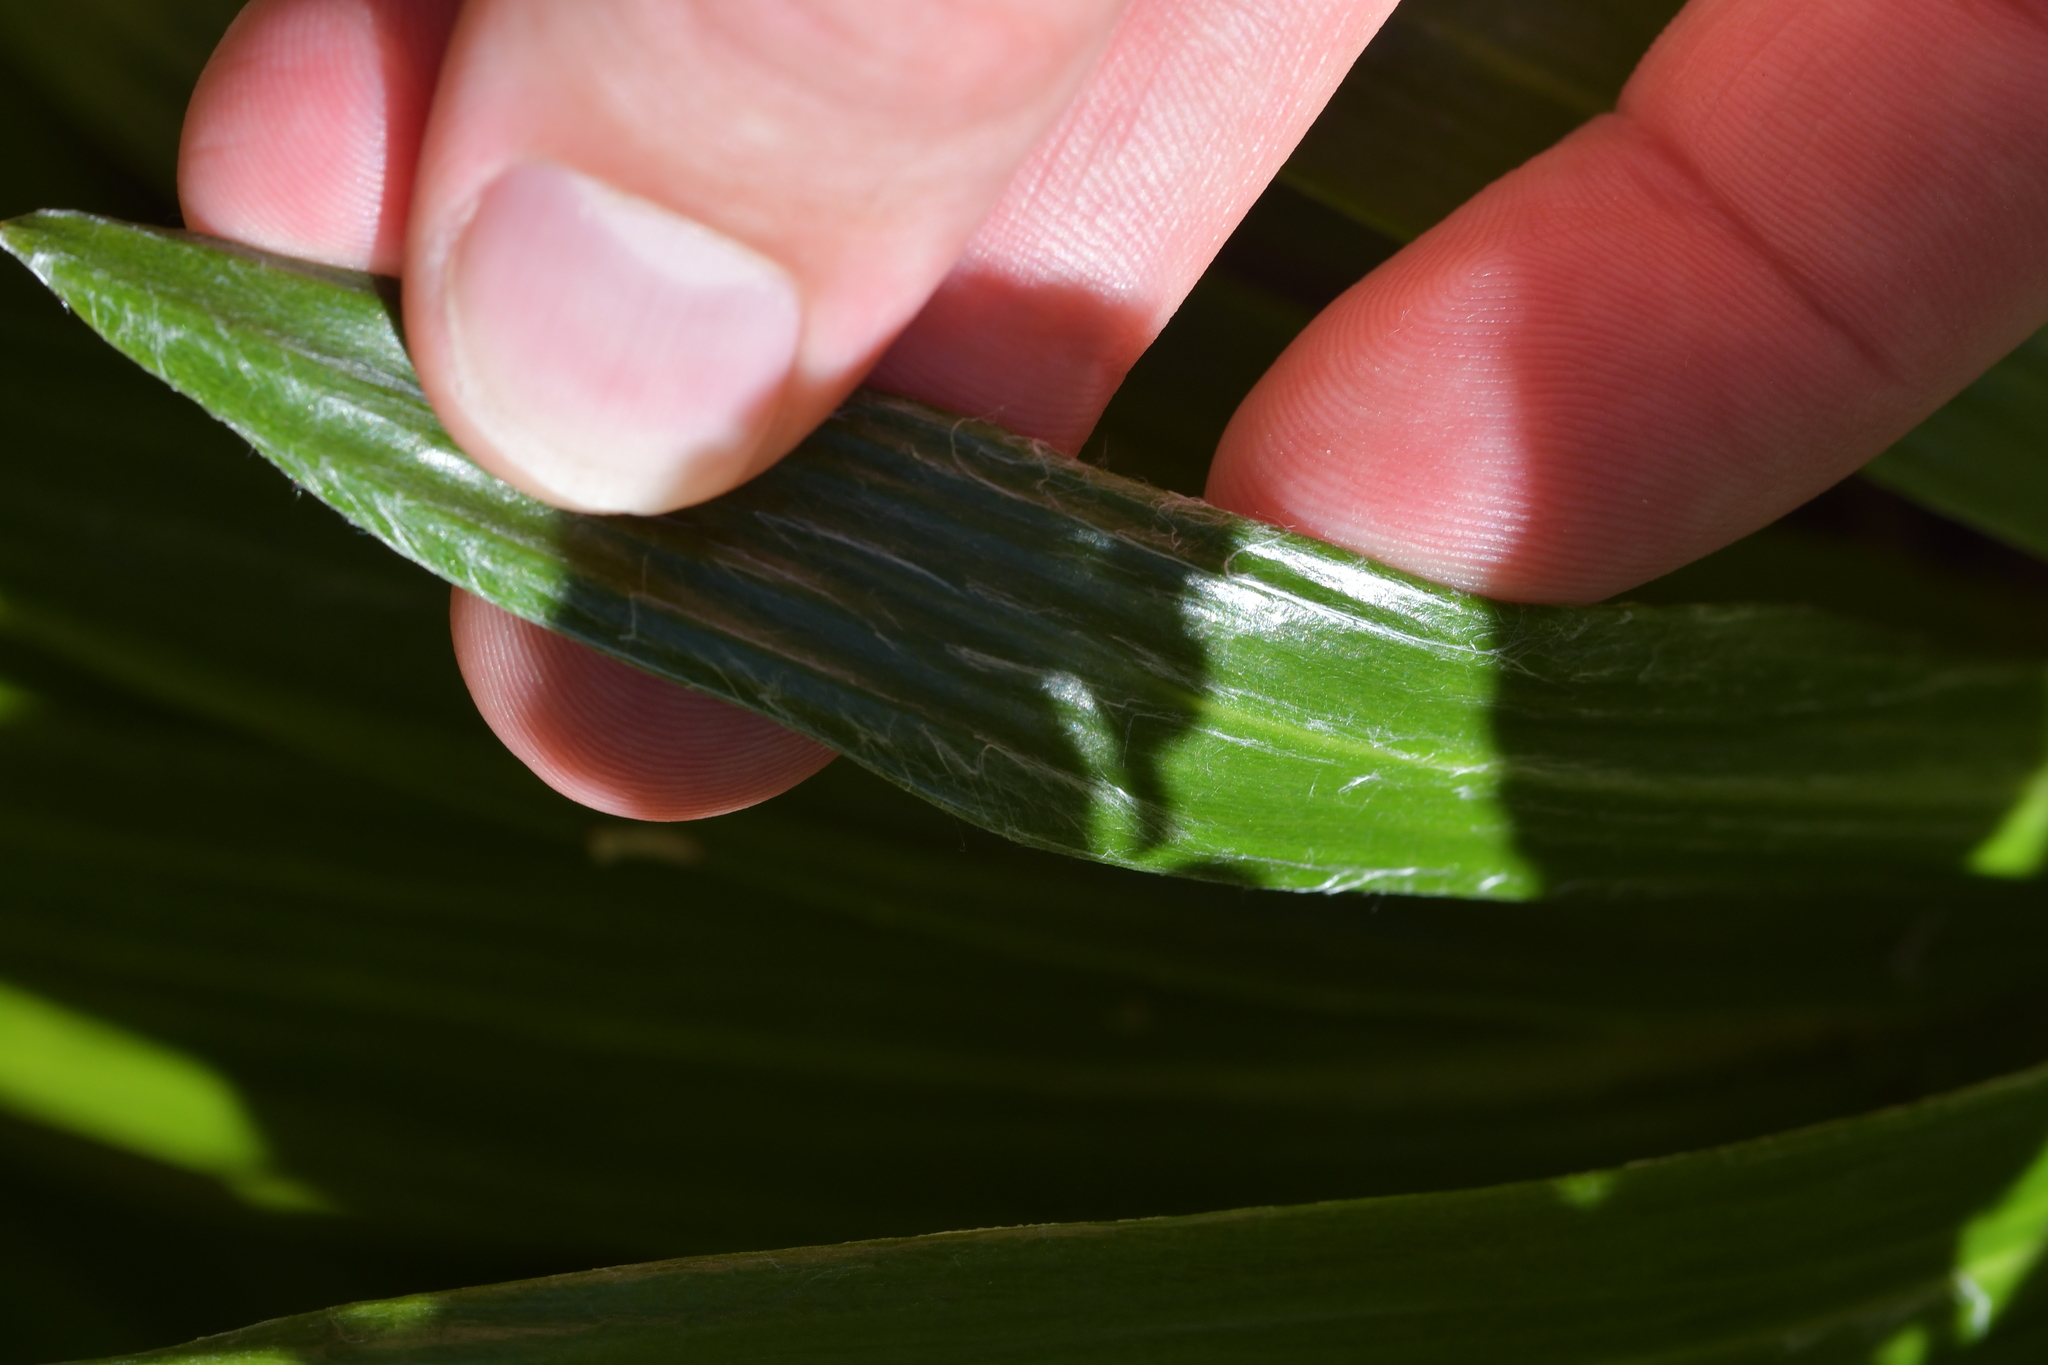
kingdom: Plantae
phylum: Tracheophyta
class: Magnoliopsida
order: Asterales
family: Asteraceae
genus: Celmisia
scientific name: Celmisia spectabilis
